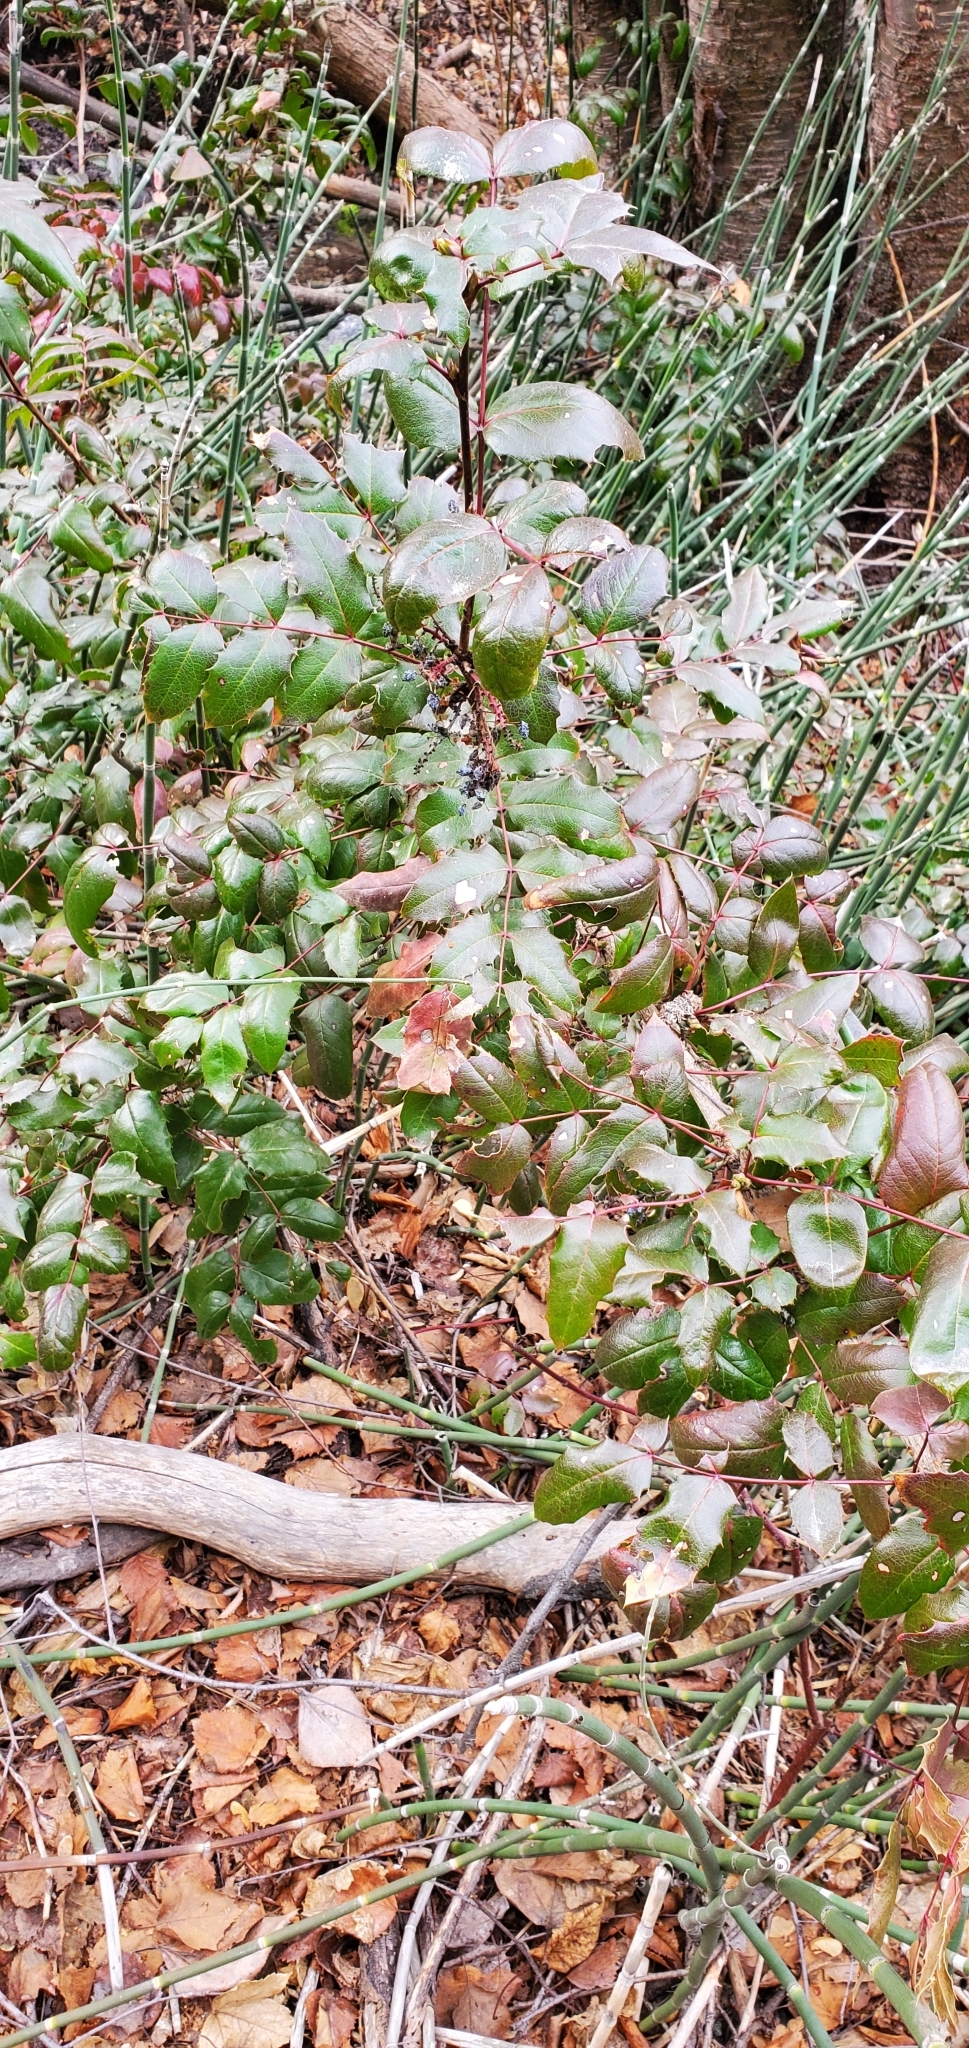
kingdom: Plantae
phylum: Tracheophyta
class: Magnoliopsida
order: Ranunculales
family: Berberidaceae
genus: Mahonia
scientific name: Mahonia aquifolium
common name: Oregon-grape
